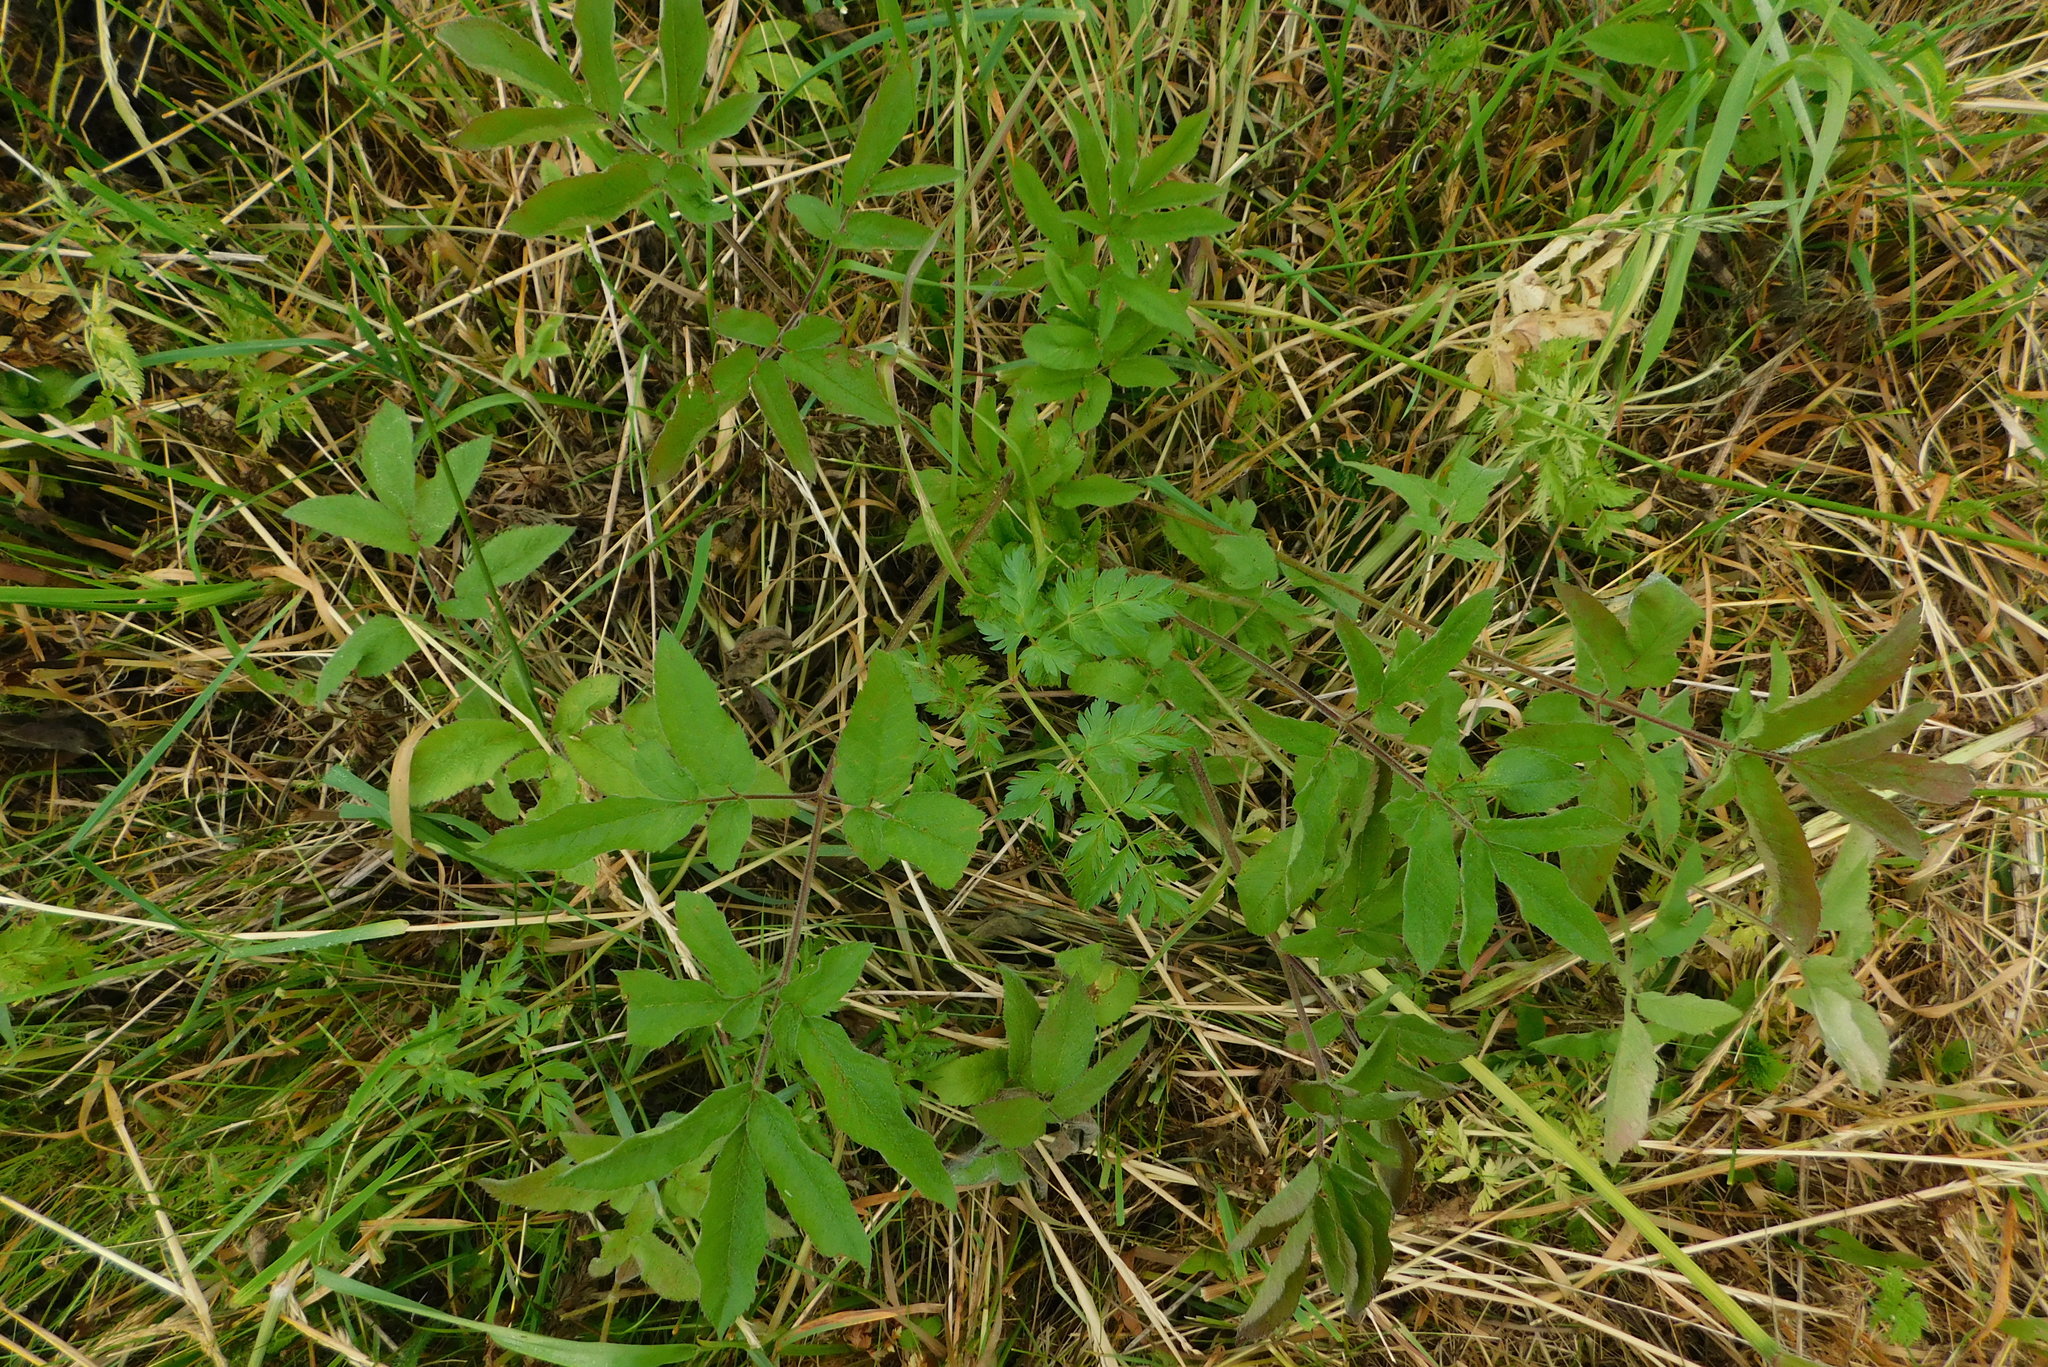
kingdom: Plantae
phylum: Tracheophyta
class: Magnoliopsida
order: Apiales
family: Apiaceae
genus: Chaerophyllum
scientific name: Chaerophyllum aromaticum
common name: Broadleaf chervil
